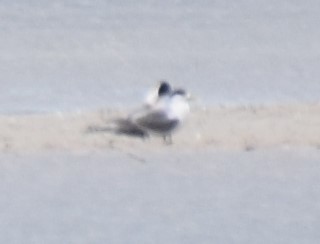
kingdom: Animalia
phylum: Chordata
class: Aves
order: Charadriiformes
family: Laridae
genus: Thalasseus
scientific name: Thalasseus bergii
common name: Greater crested tern
